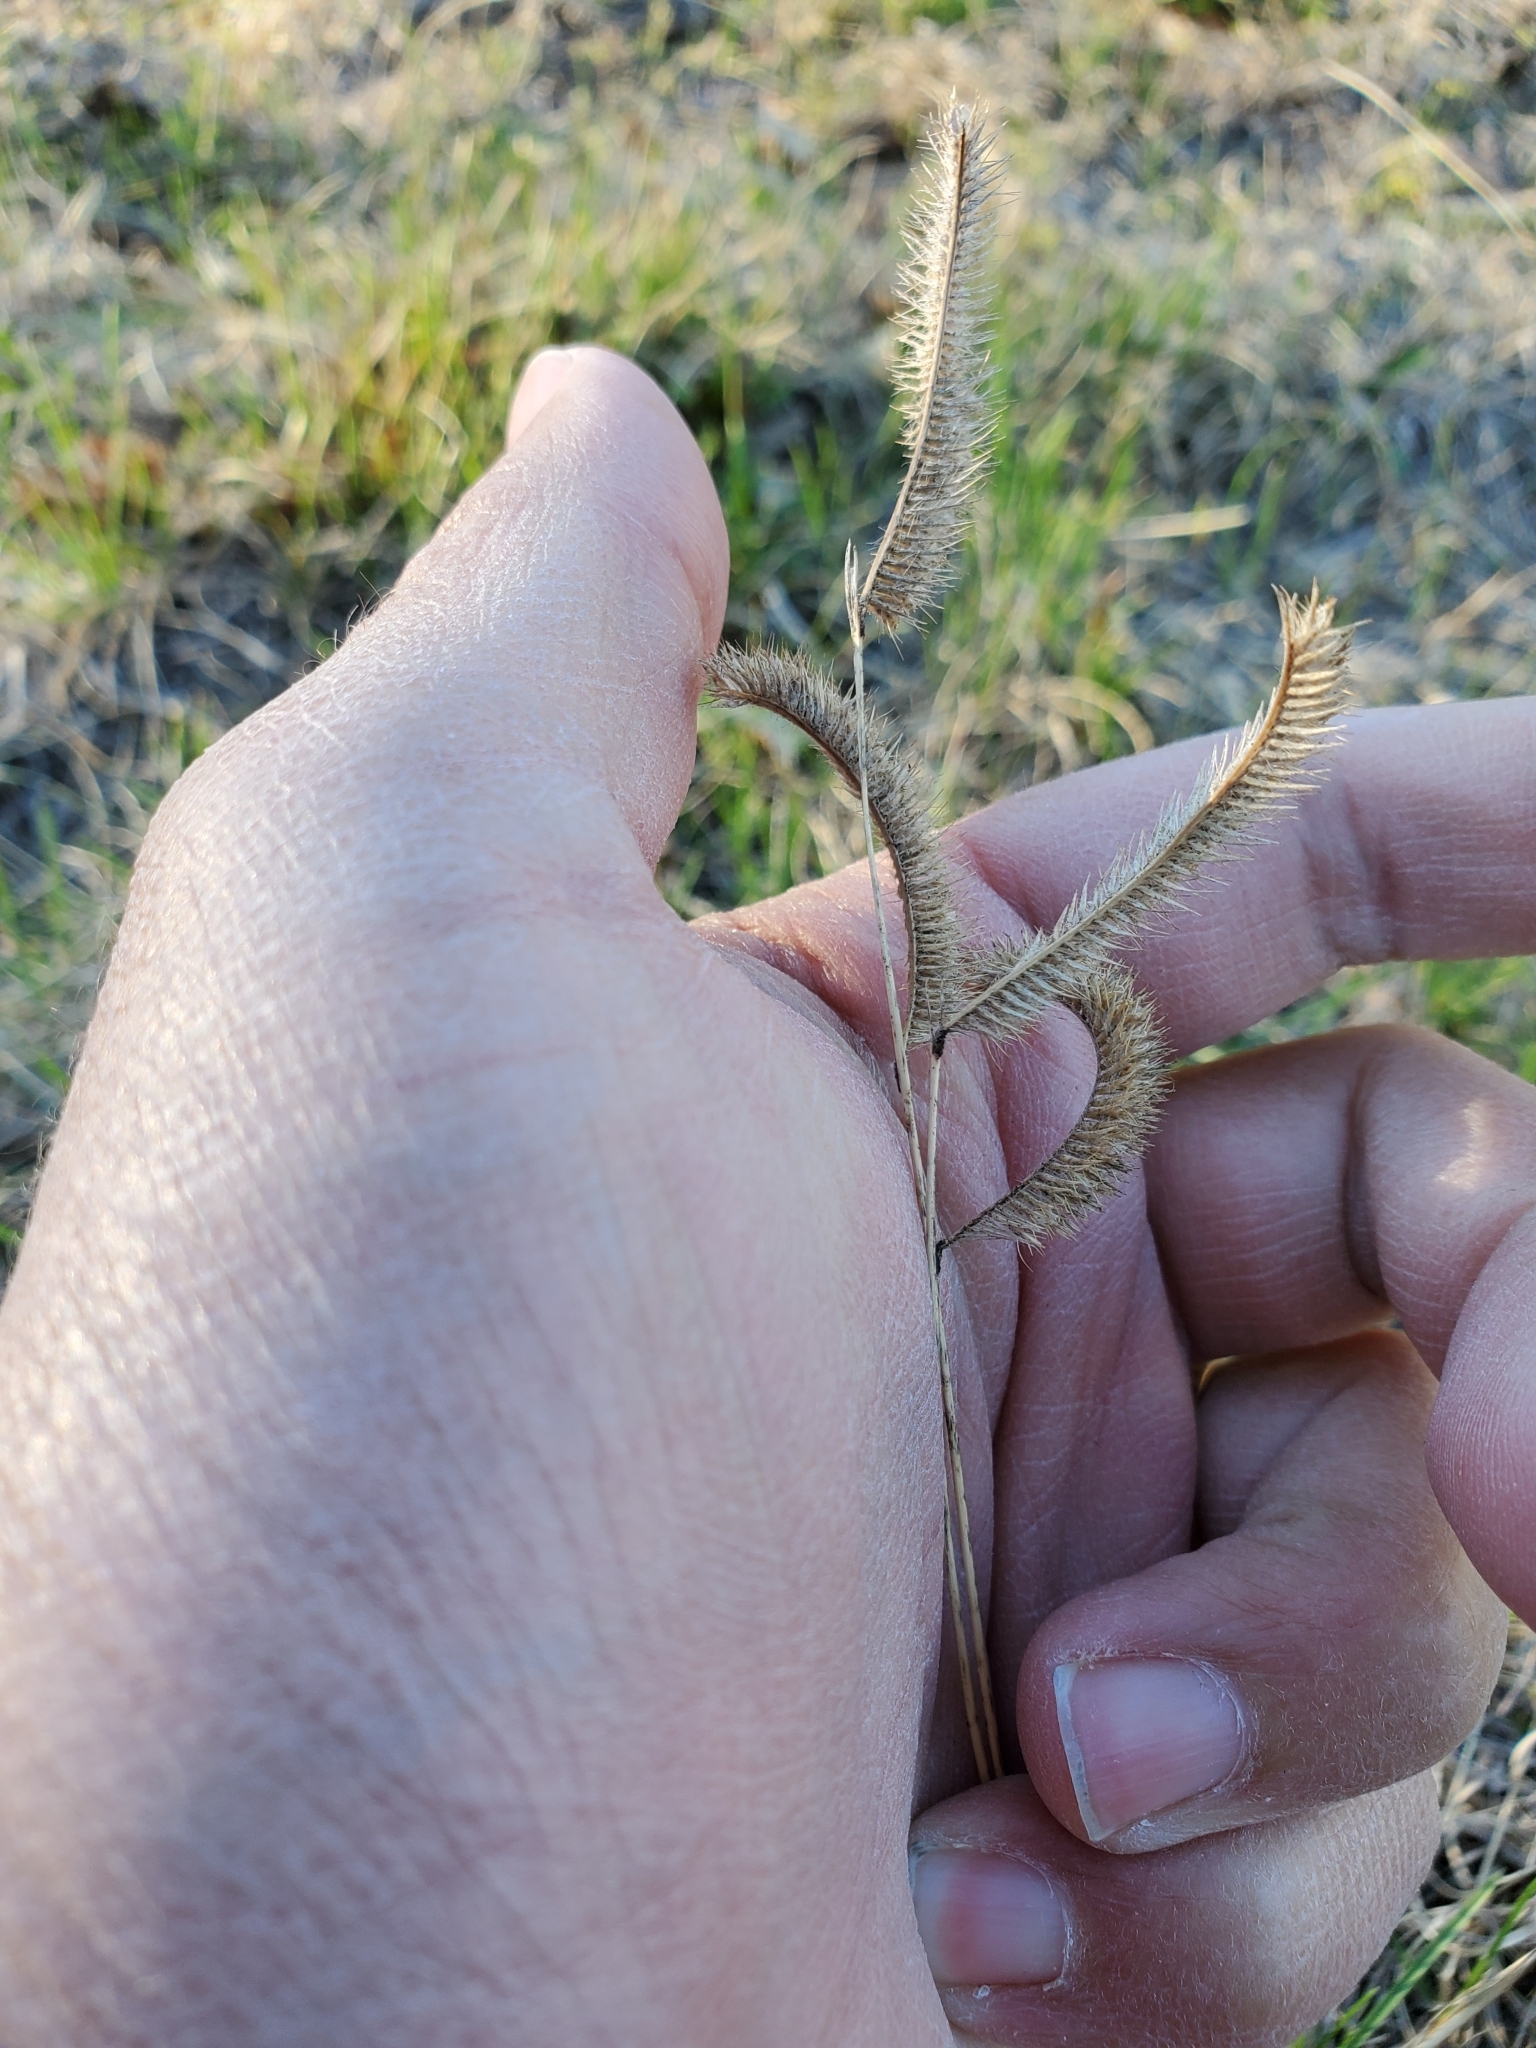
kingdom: Plantae
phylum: Tracheophyta
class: Liliopsida
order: Poales
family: Poaceae
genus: Bouteloua
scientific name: Bouteloua gracilis
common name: Blue grama
